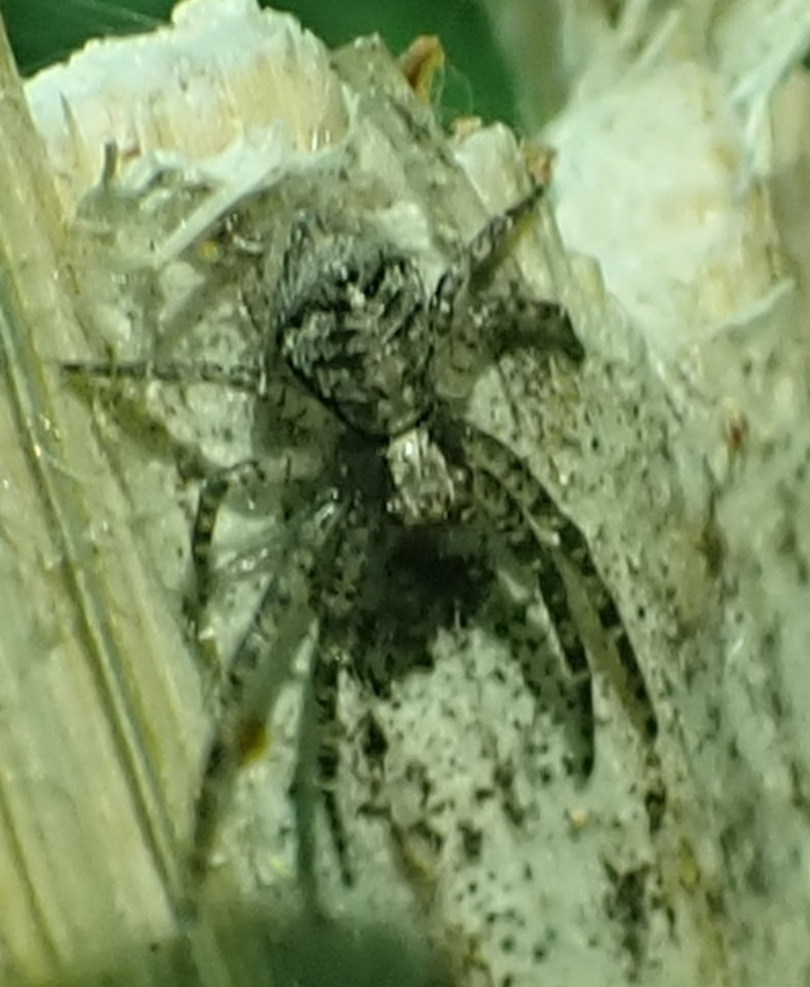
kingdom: Animalia
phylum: Arthropoda
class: Arachnida
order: Araneae
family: Thomisidae
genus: Tmarus
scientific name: Tmarus
